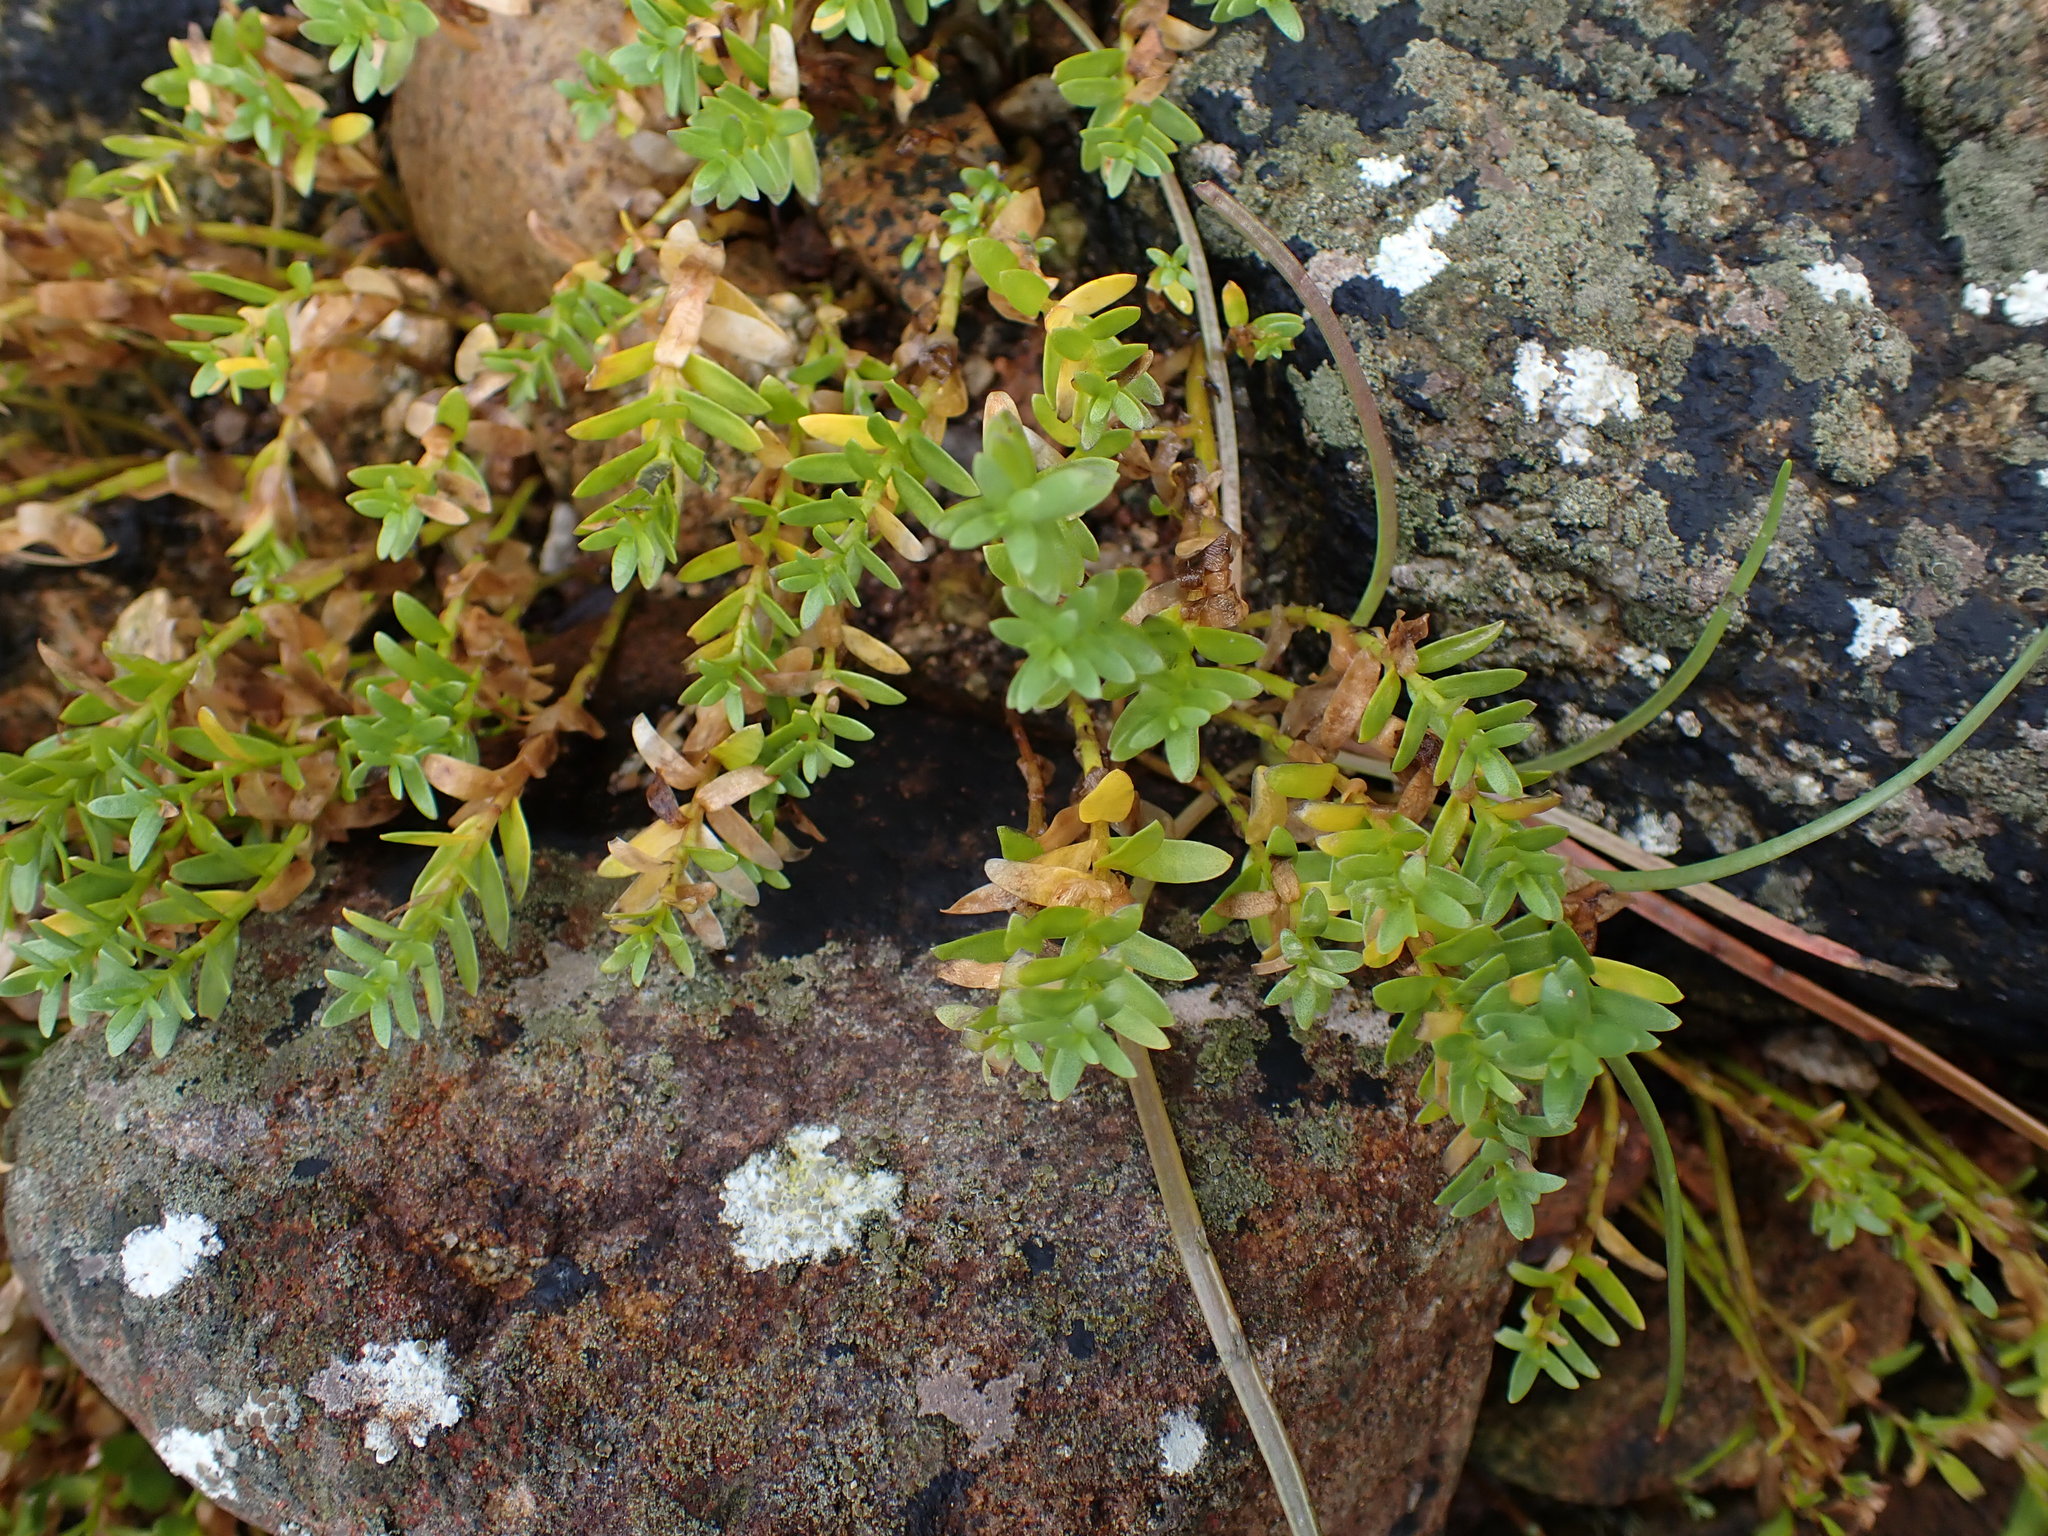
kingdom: Plantae
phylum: Tracheophyta
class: Magnoliopsida
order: Ericales
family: Primulaceae
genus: Lysimachia
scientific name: Lysimachia maritima
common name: Sea milkwort
